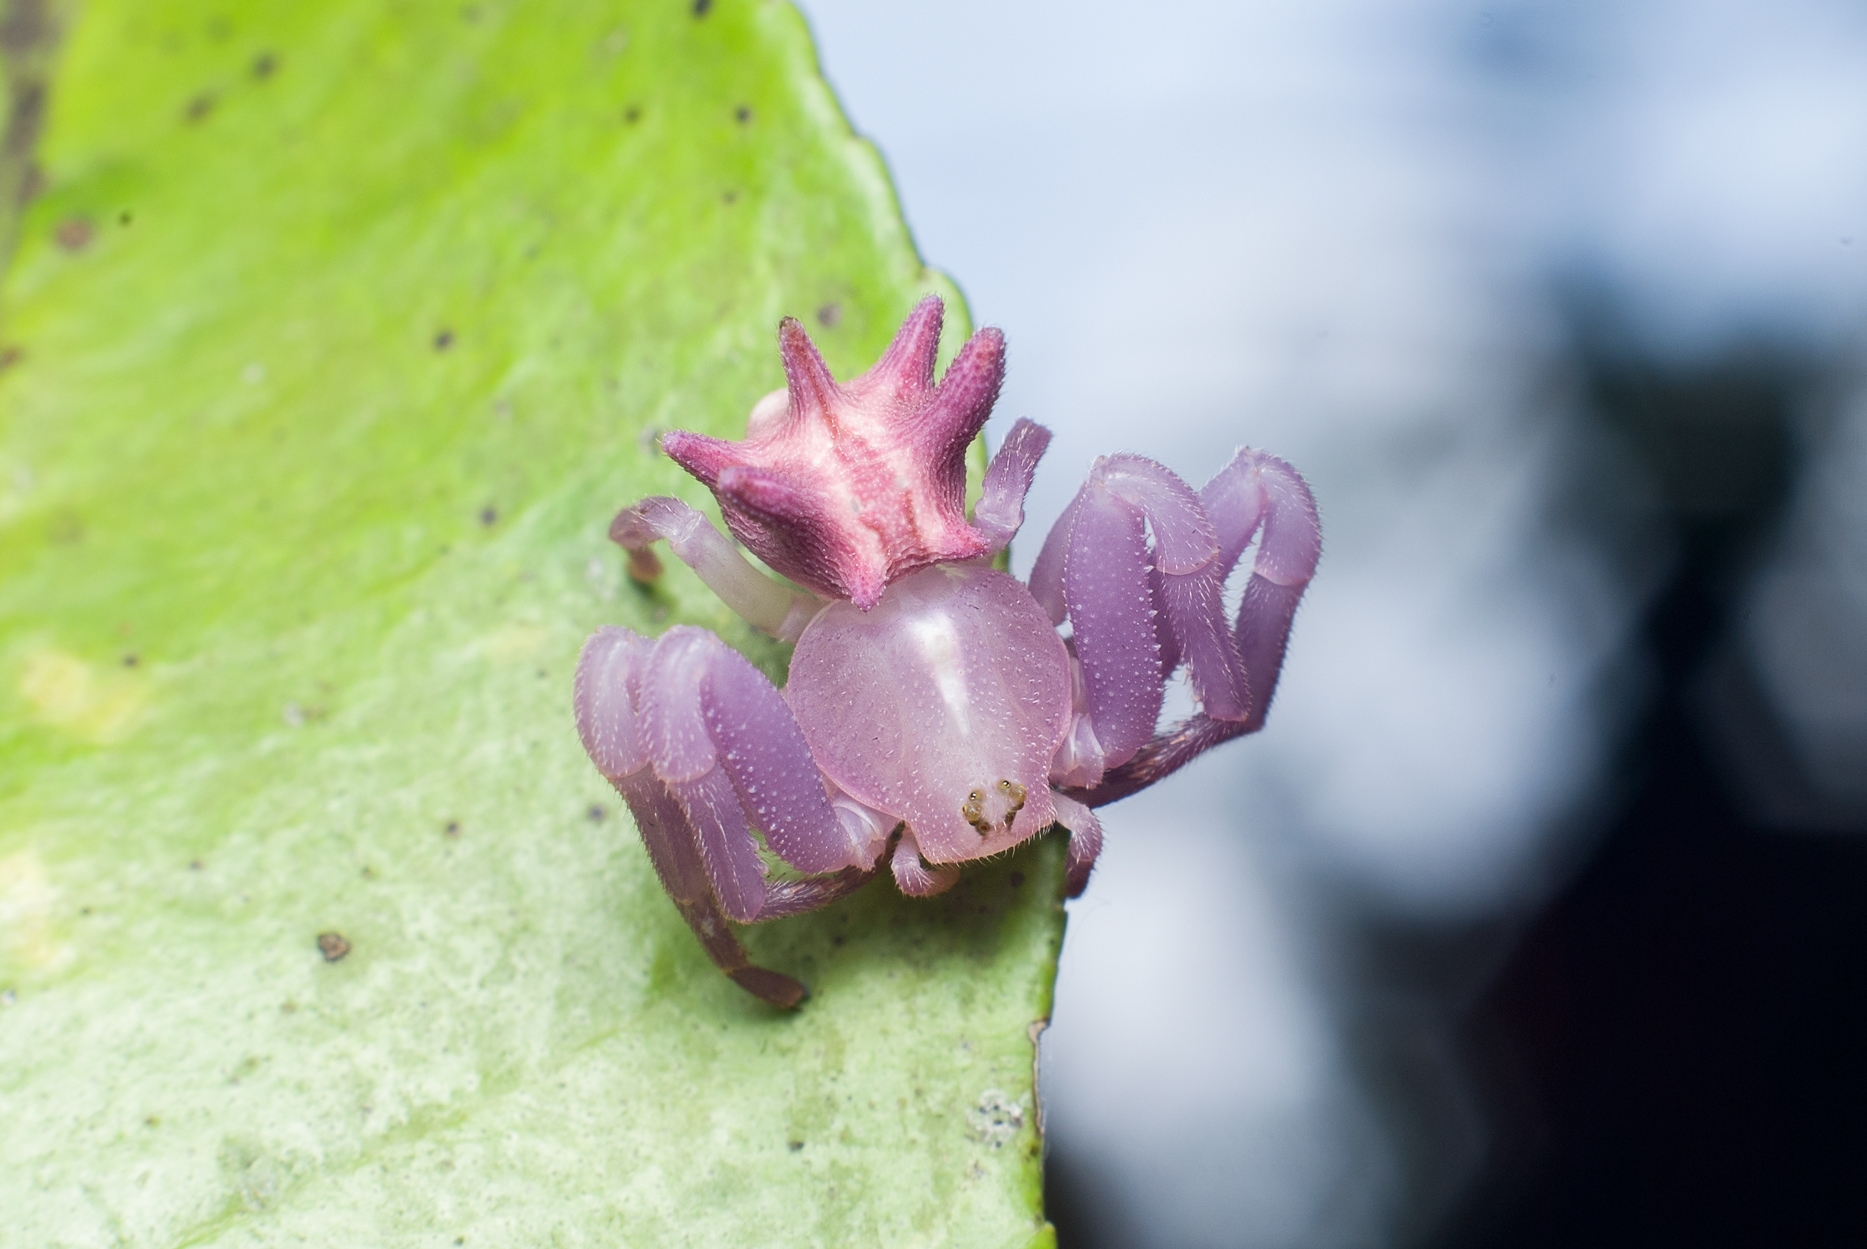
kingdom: Animalia
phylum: Arthropoda
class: Arachnida
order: Araneae
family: Thomisidae
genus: Epicadus
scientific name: Epicadus heterogaster
